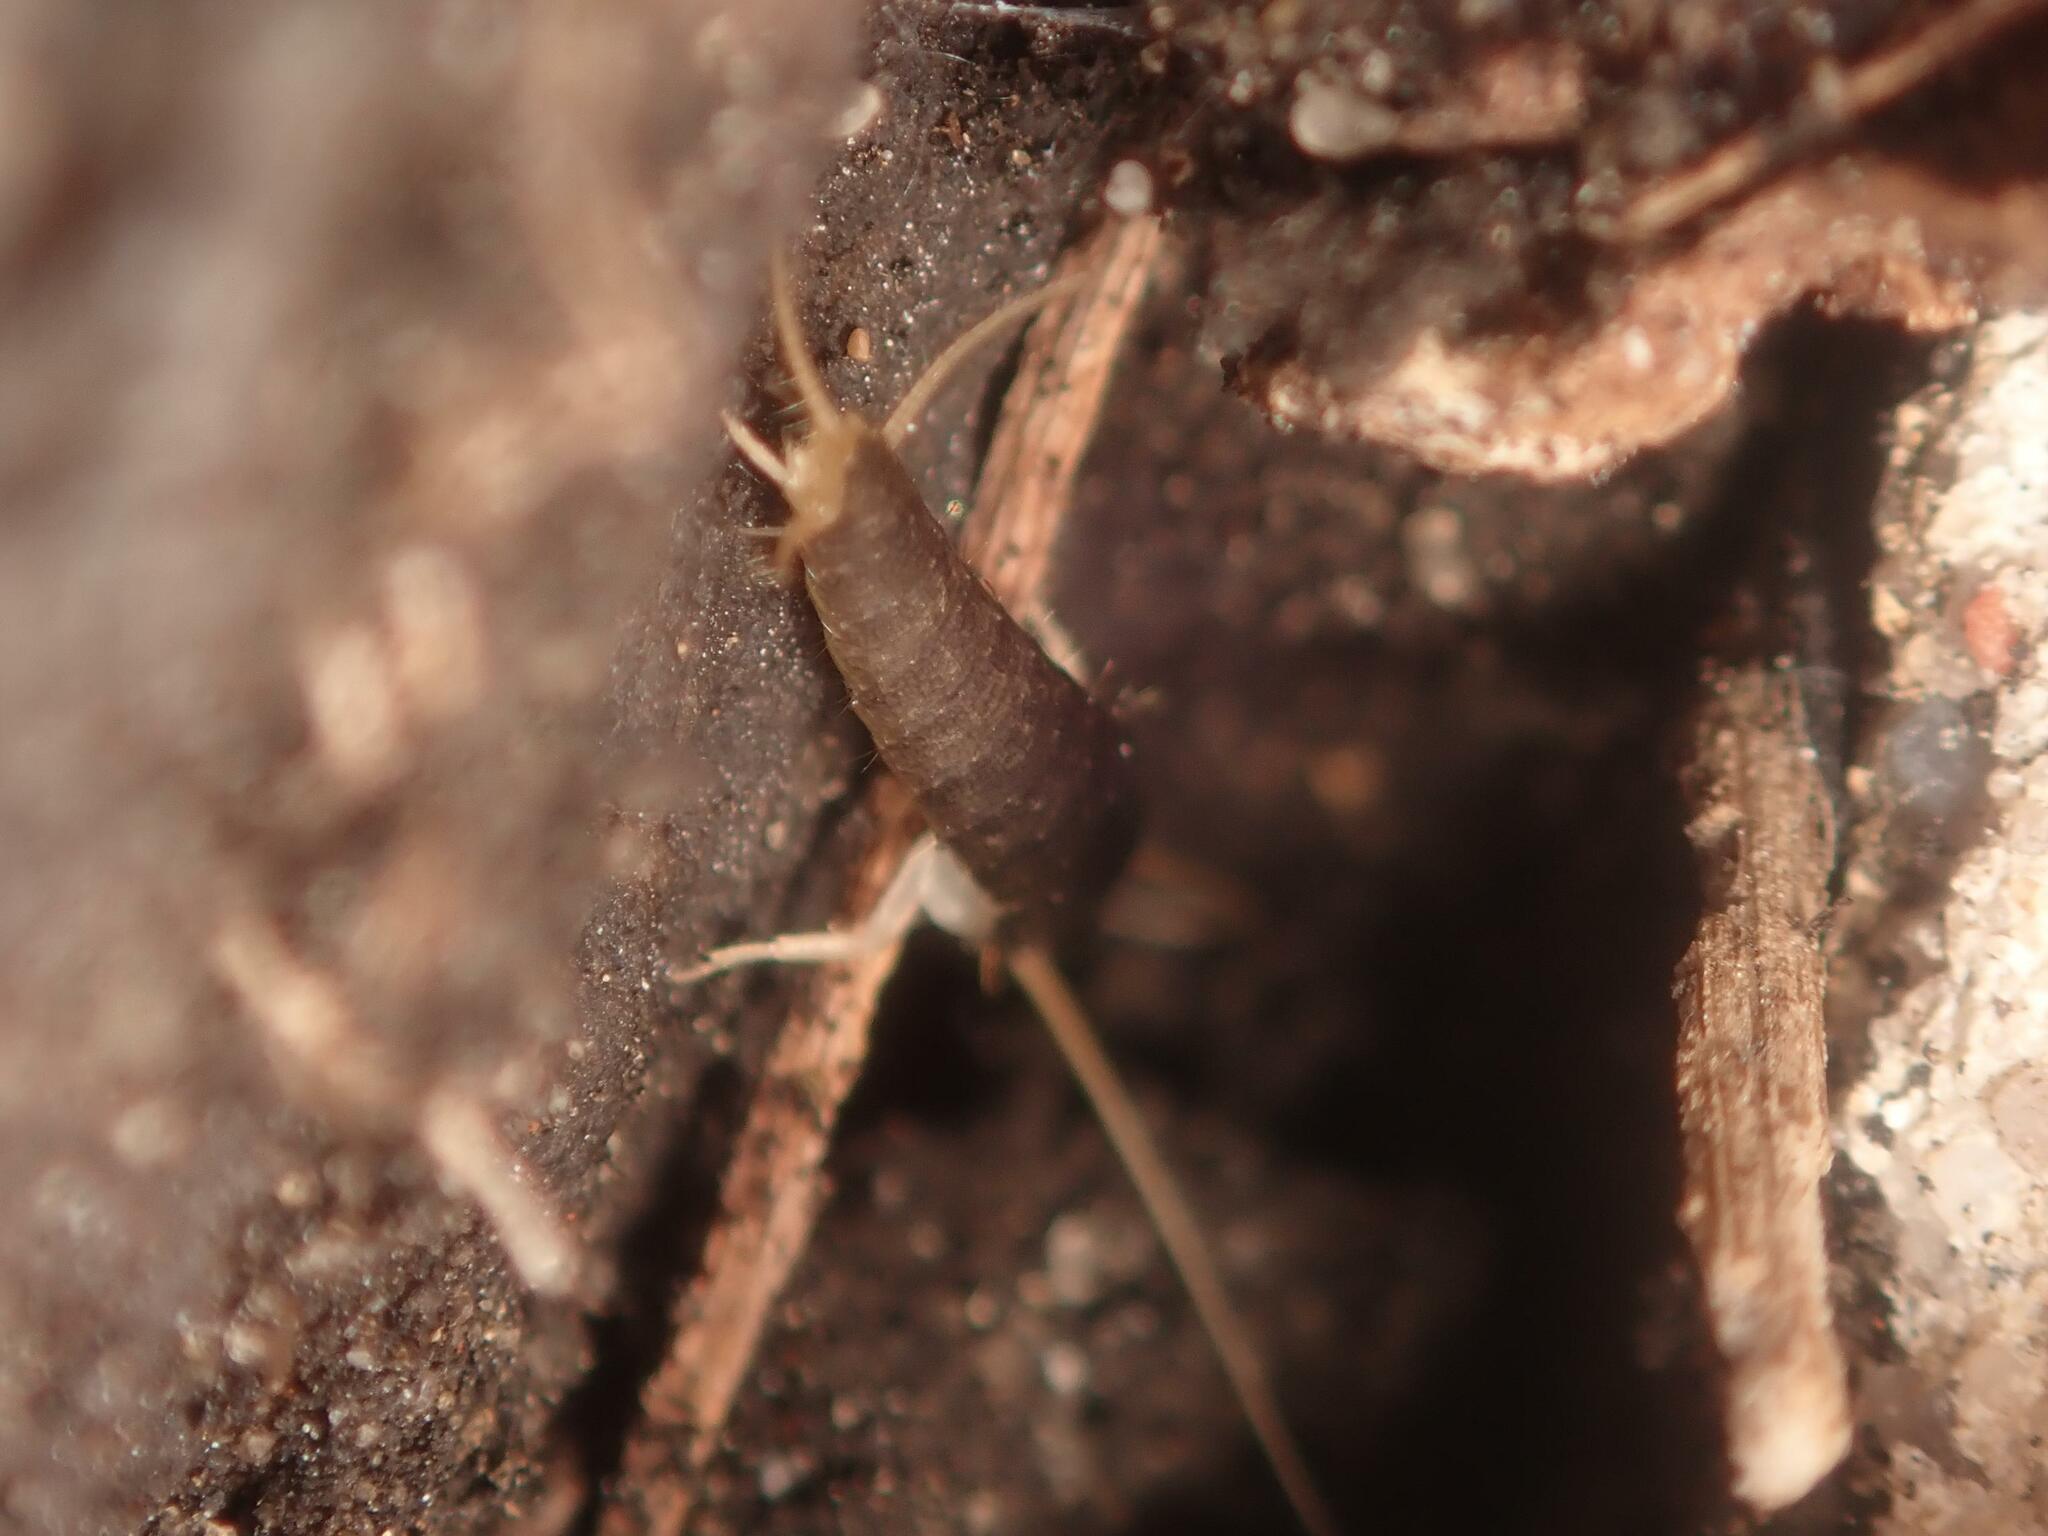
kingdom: Animalia
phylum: Arthropoda
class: Insecta
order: Zygentoma
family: Lepismatidae
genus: Lepisma
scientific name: Lepisma saccharinum
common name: Silverfish
